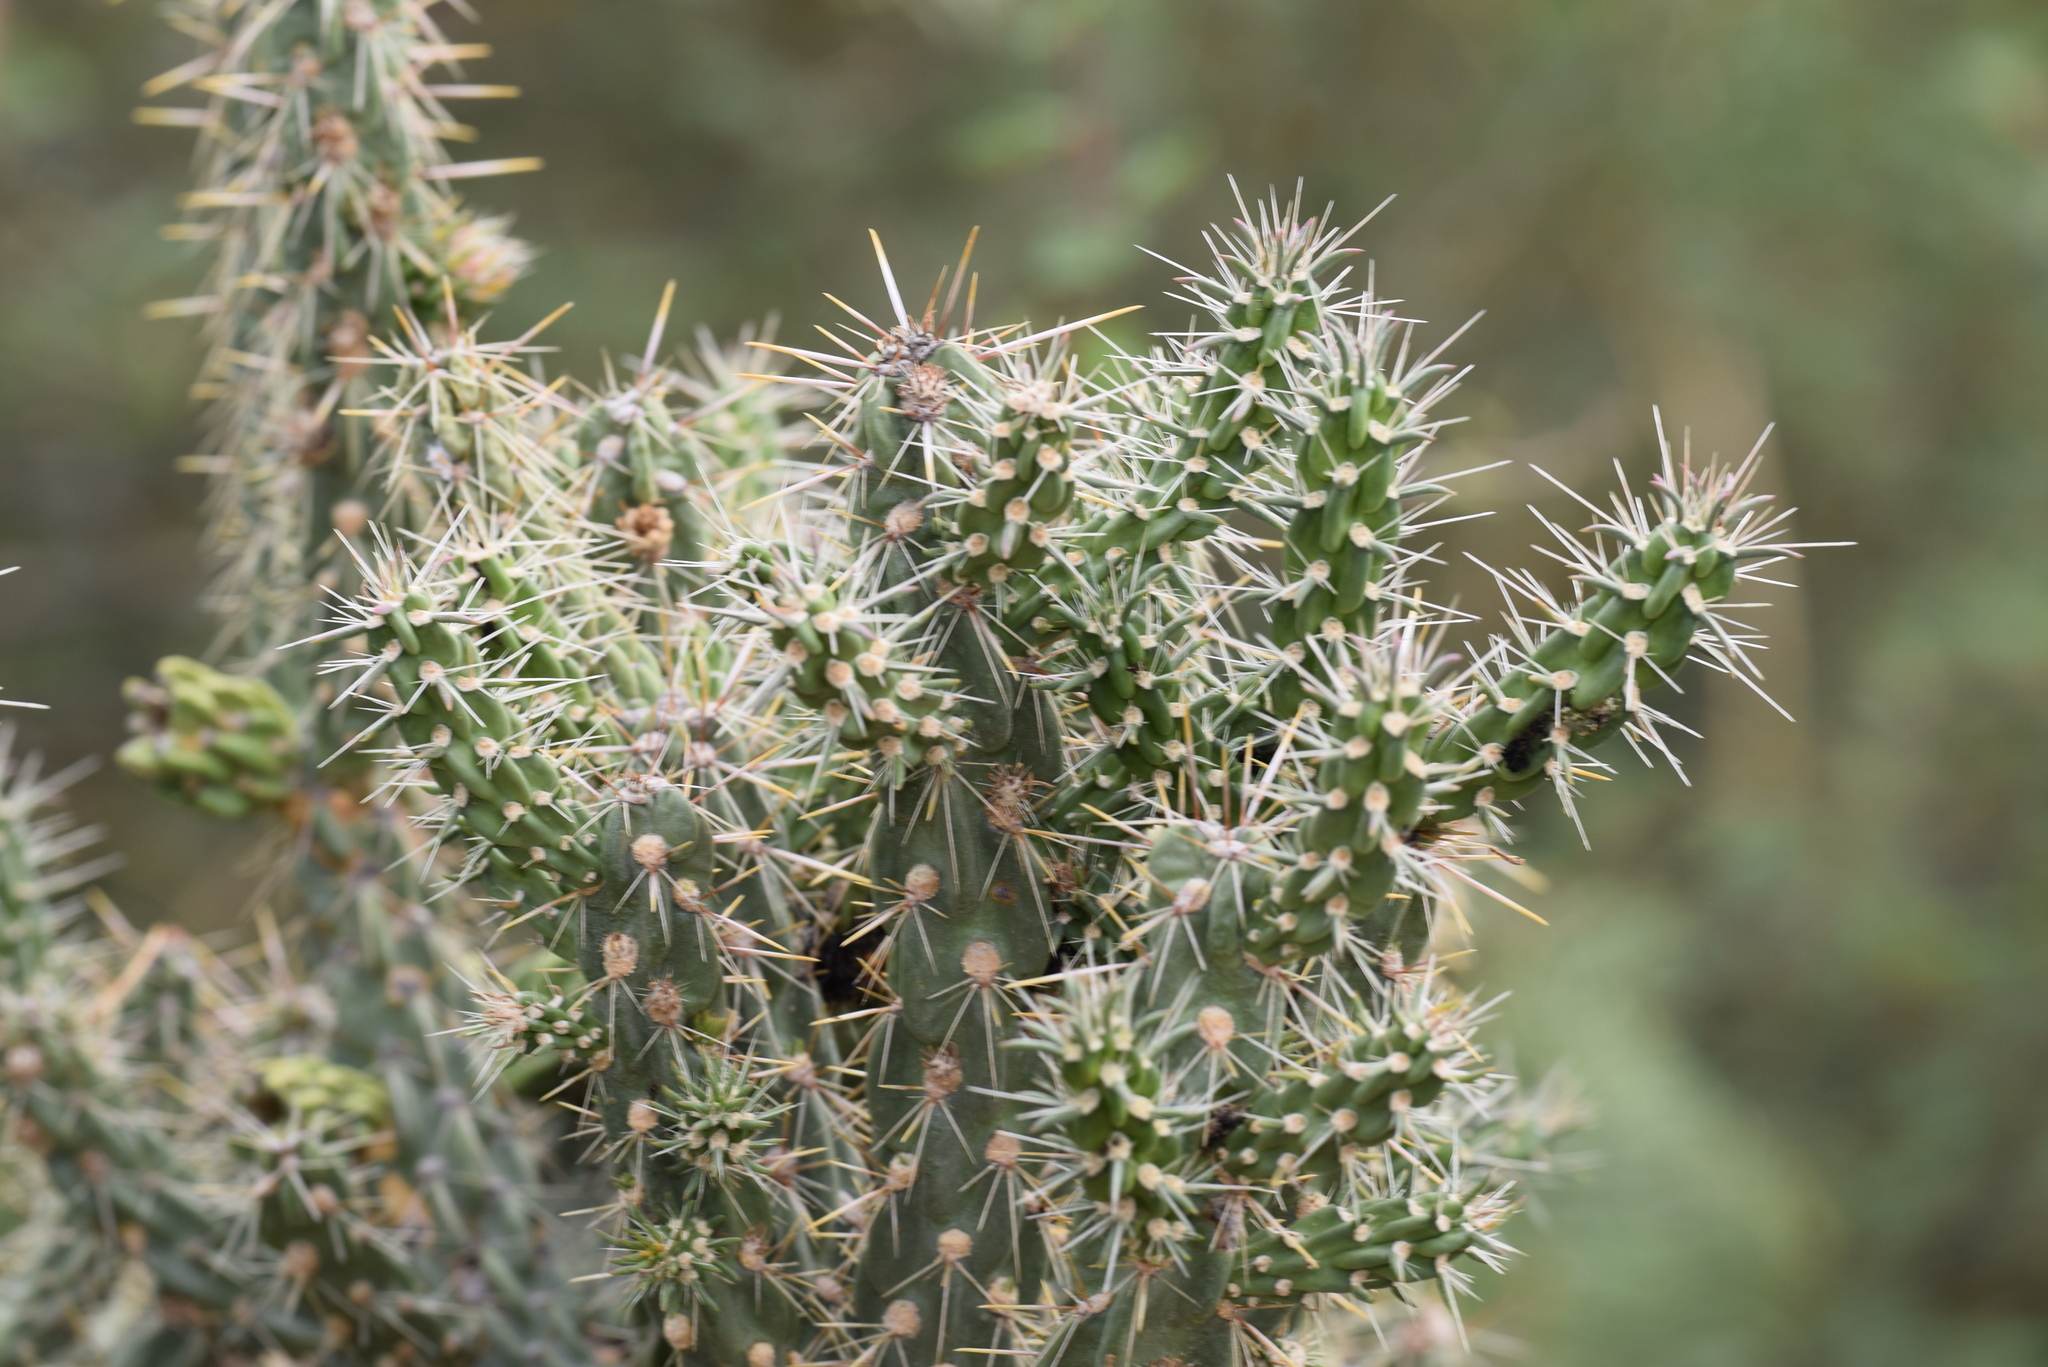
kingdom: Plantae
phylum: Tracheophyta
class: Magnoliopsida
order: Caryophyllales
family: Cactaceae
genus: Cylindropuntia
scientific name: Cylindropuntia imbricata
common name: Candelabrum cactus
